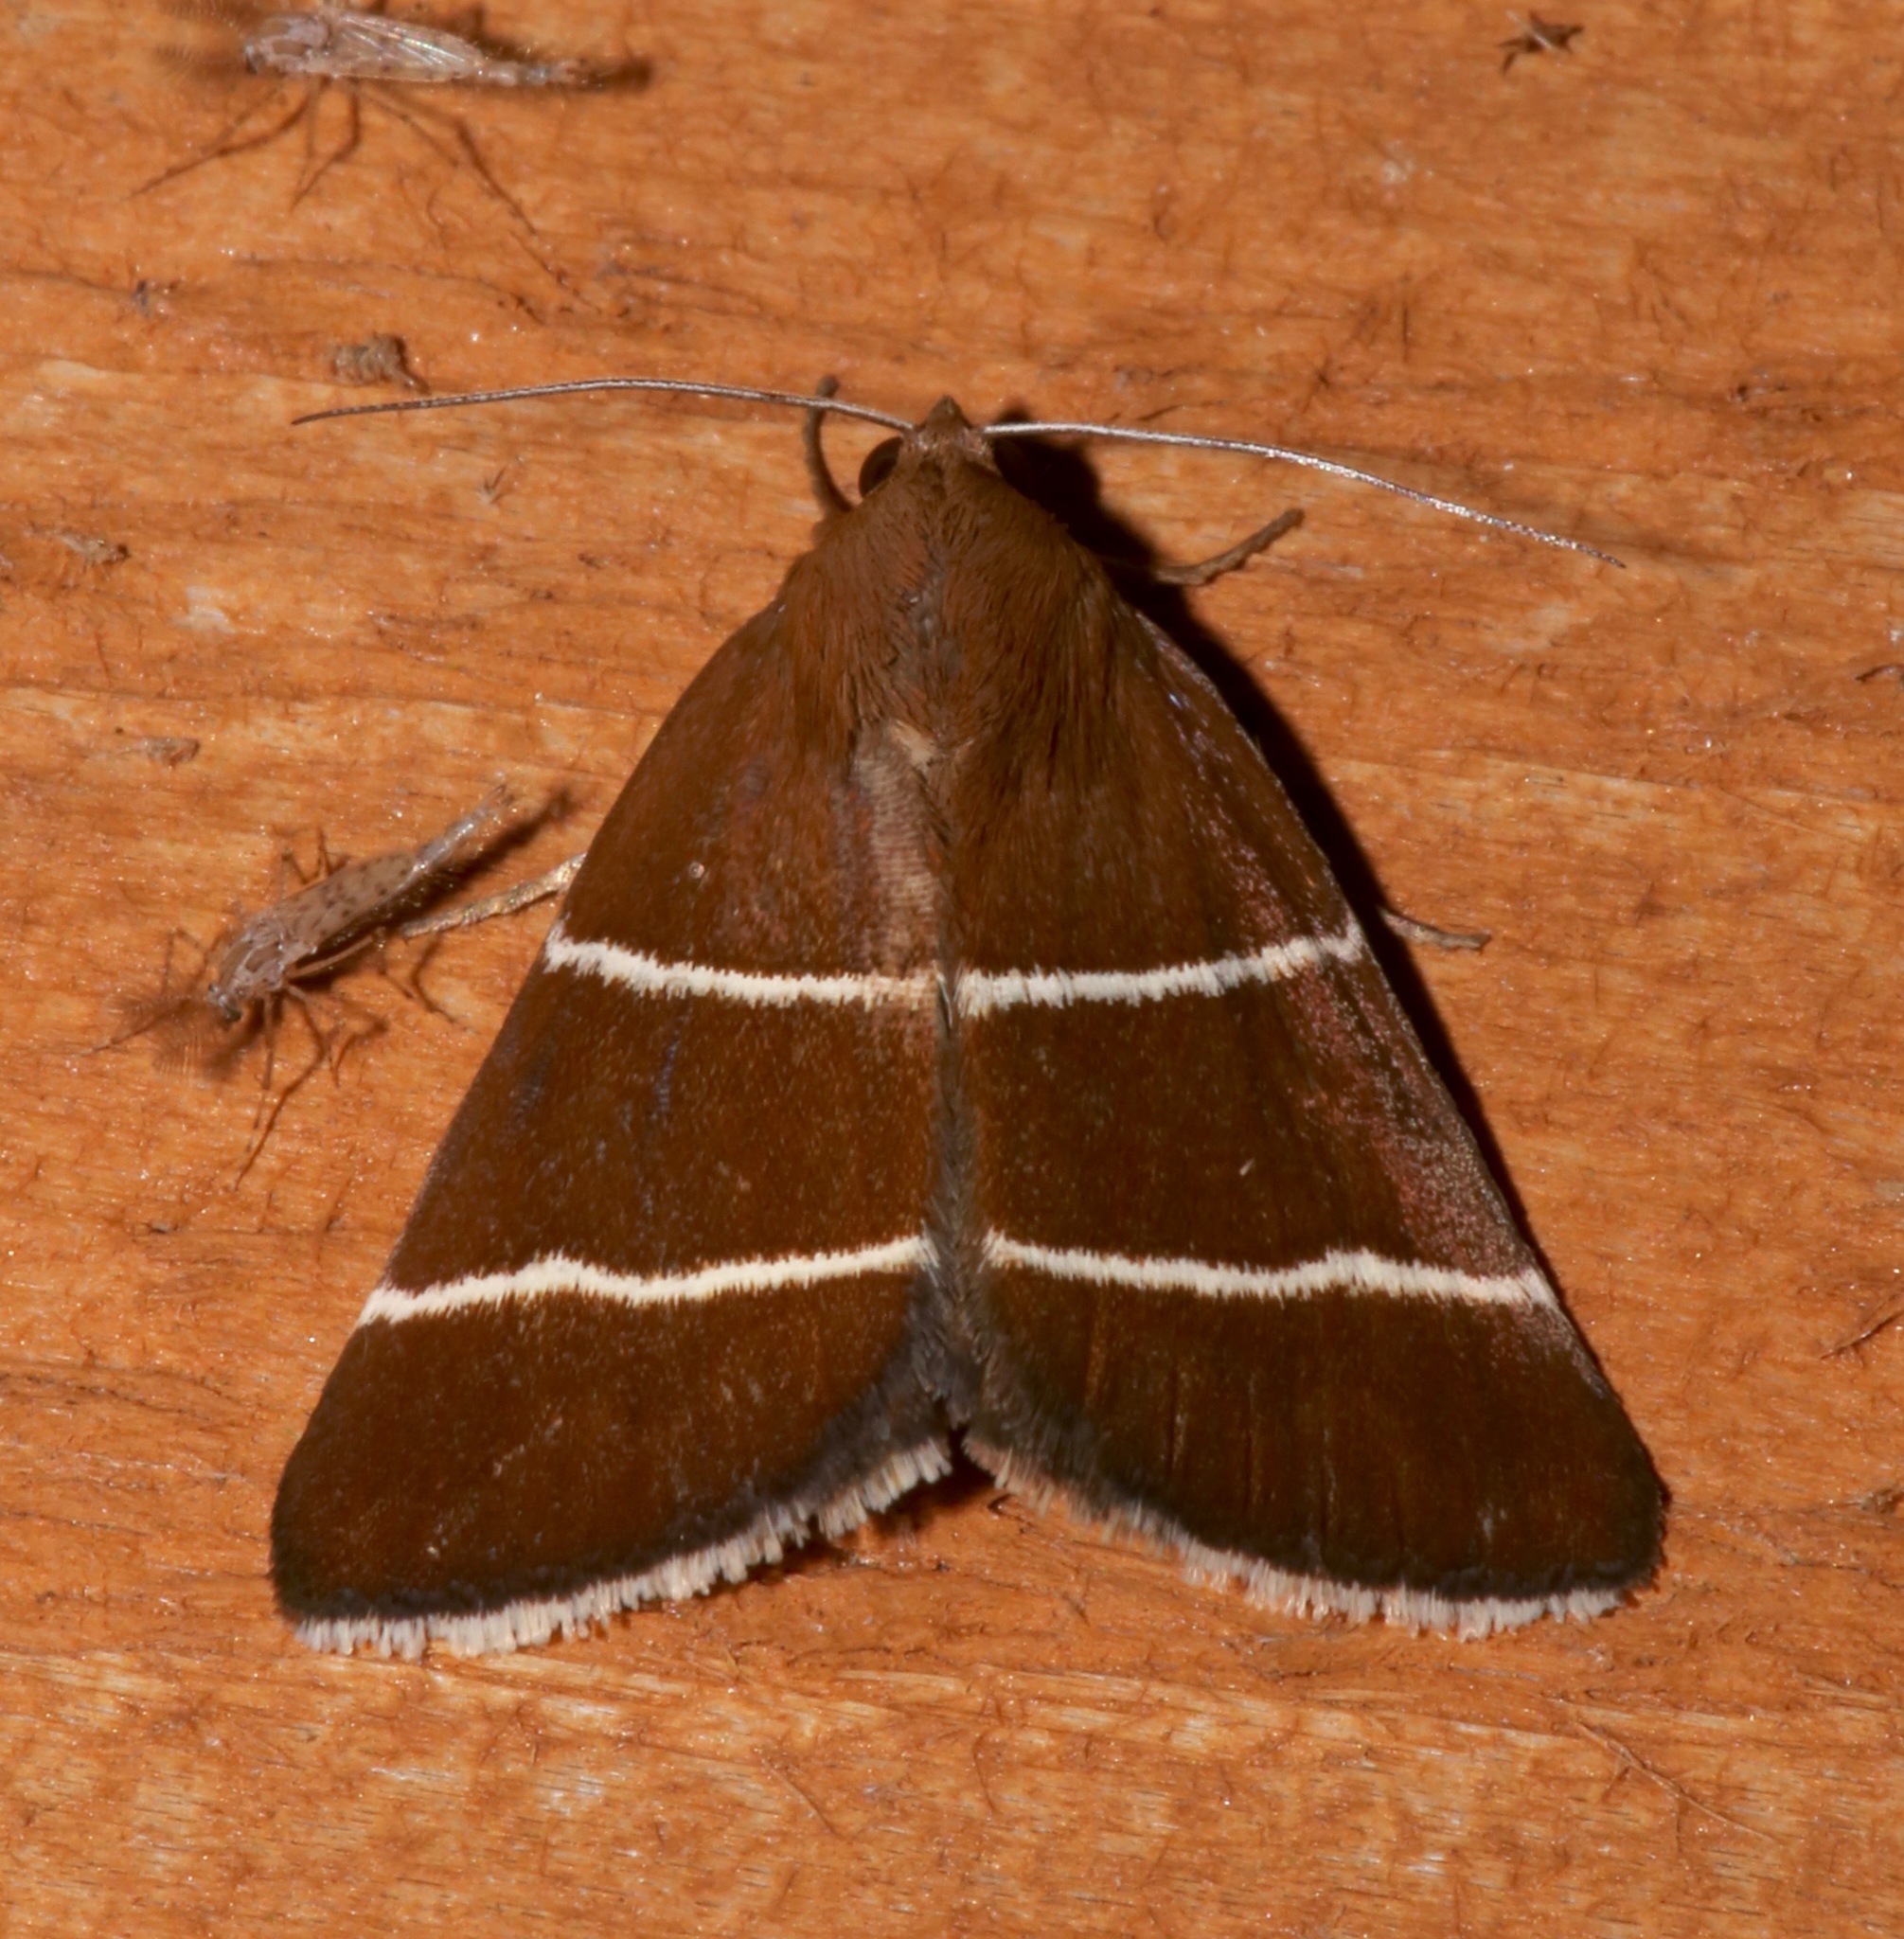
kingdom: Animalia
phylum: Arthropoda
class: Insecta
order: Lepidoptera
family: Erebidae
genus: Argyrostrotis
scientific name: Argyrostrotis quadrifilaris
